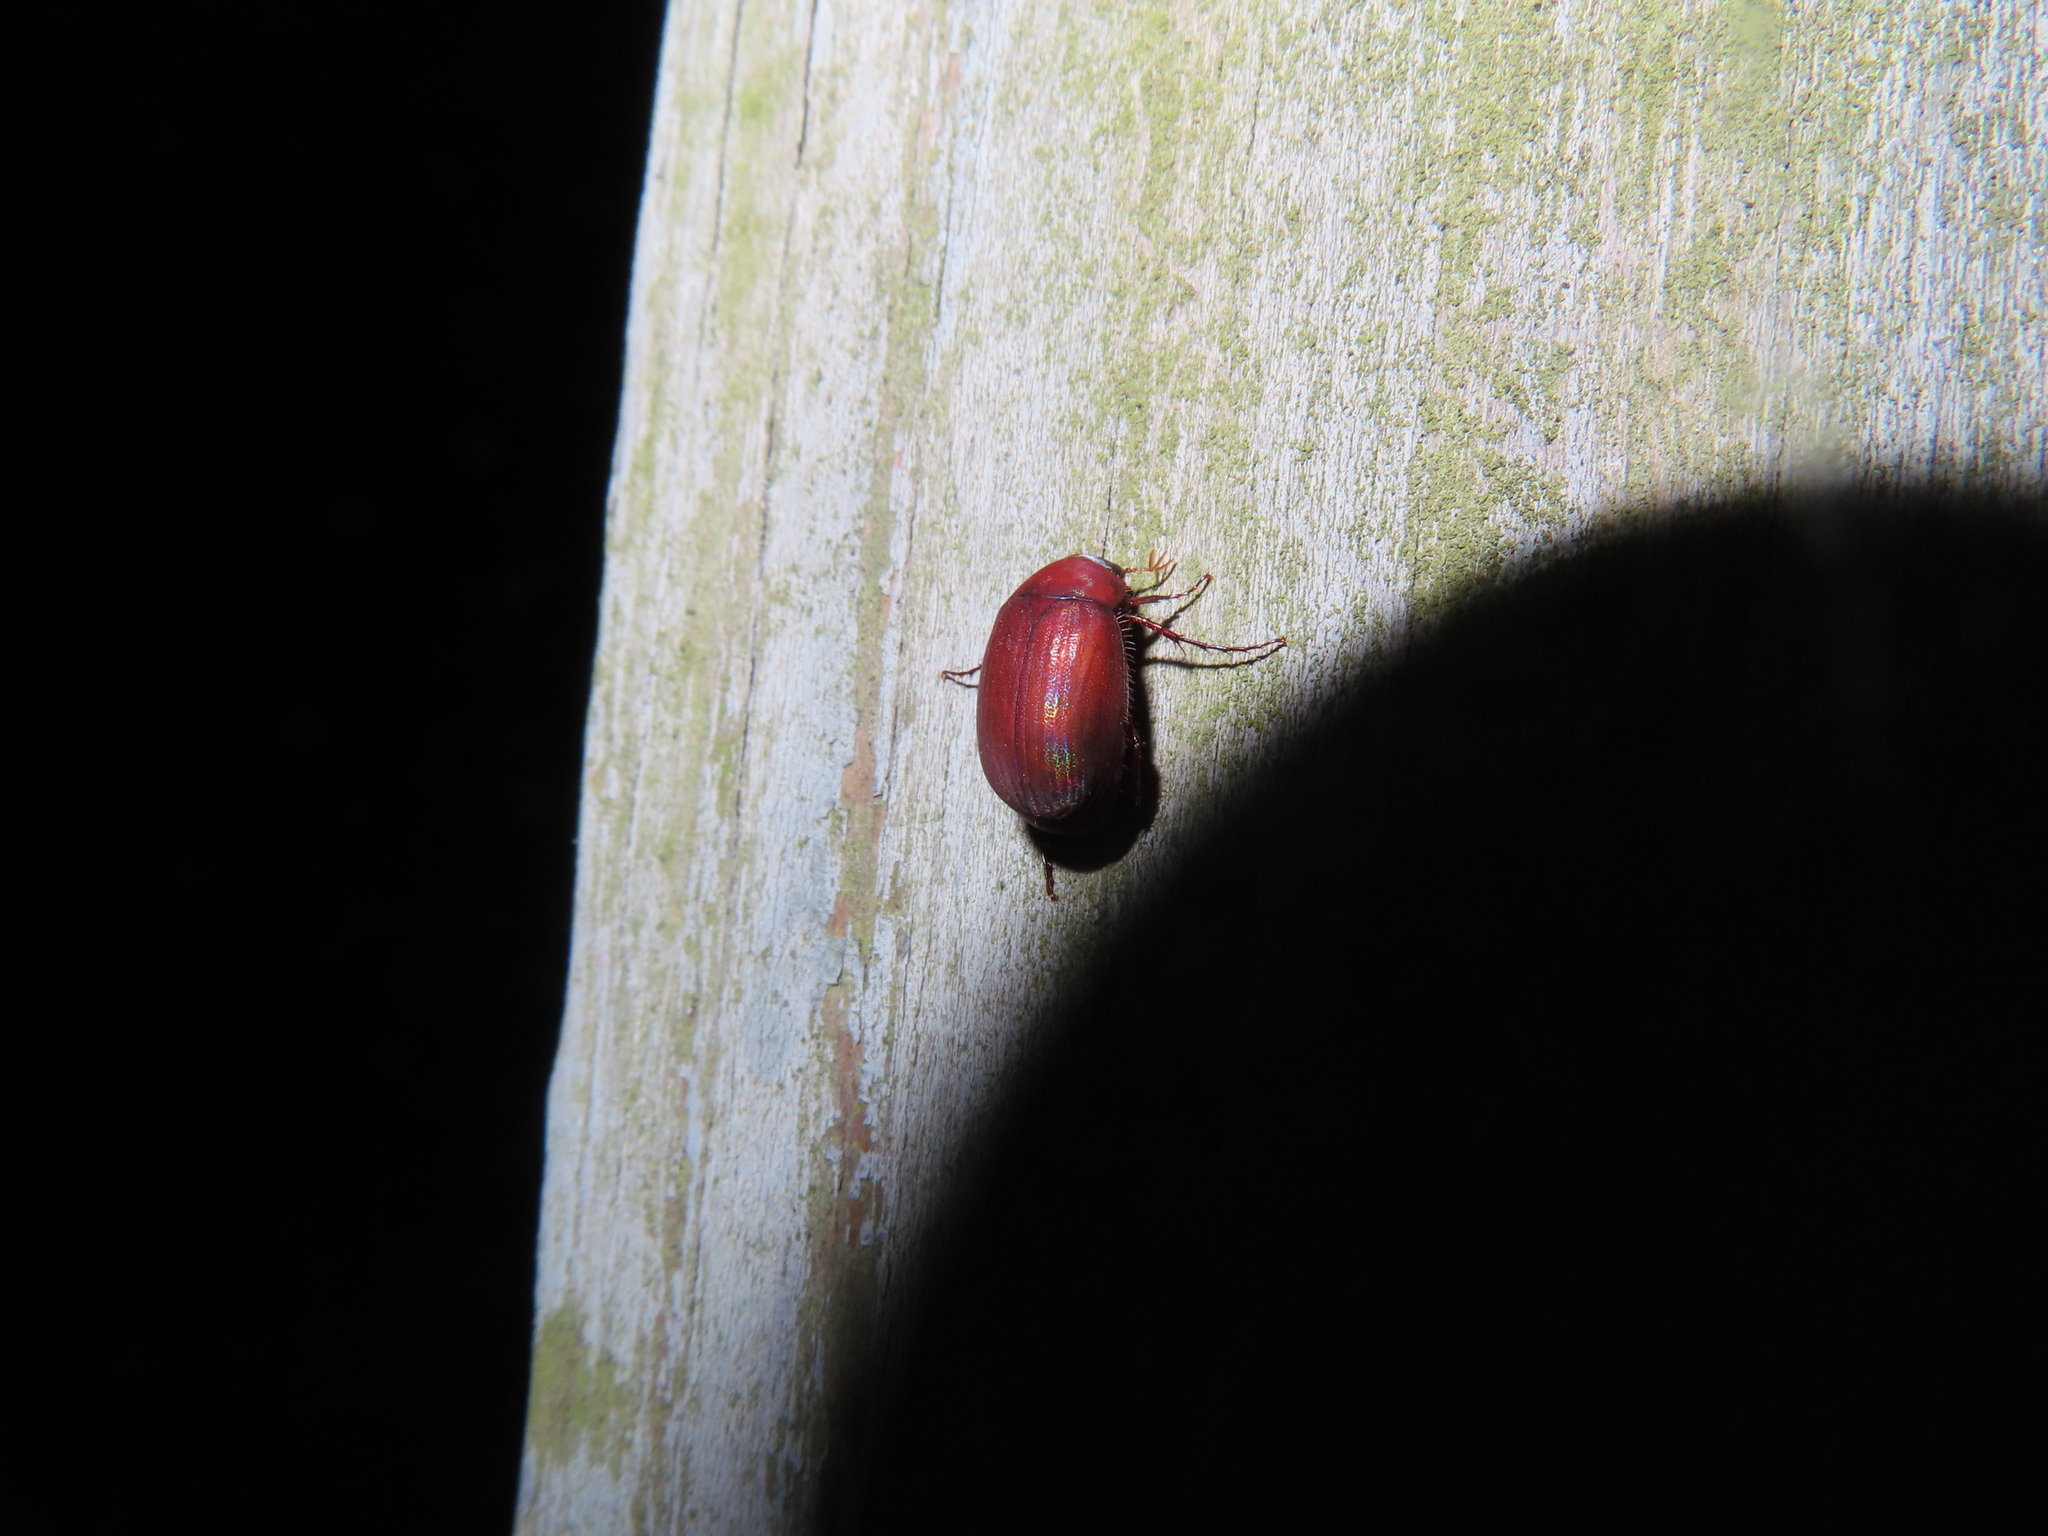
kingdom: Animalia
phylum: Arthropoda
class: Insecta
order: Coleoptera
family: Scarabaeidae
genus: Maladera
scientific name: Maladera formosae
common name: Asiatic garden beetle
